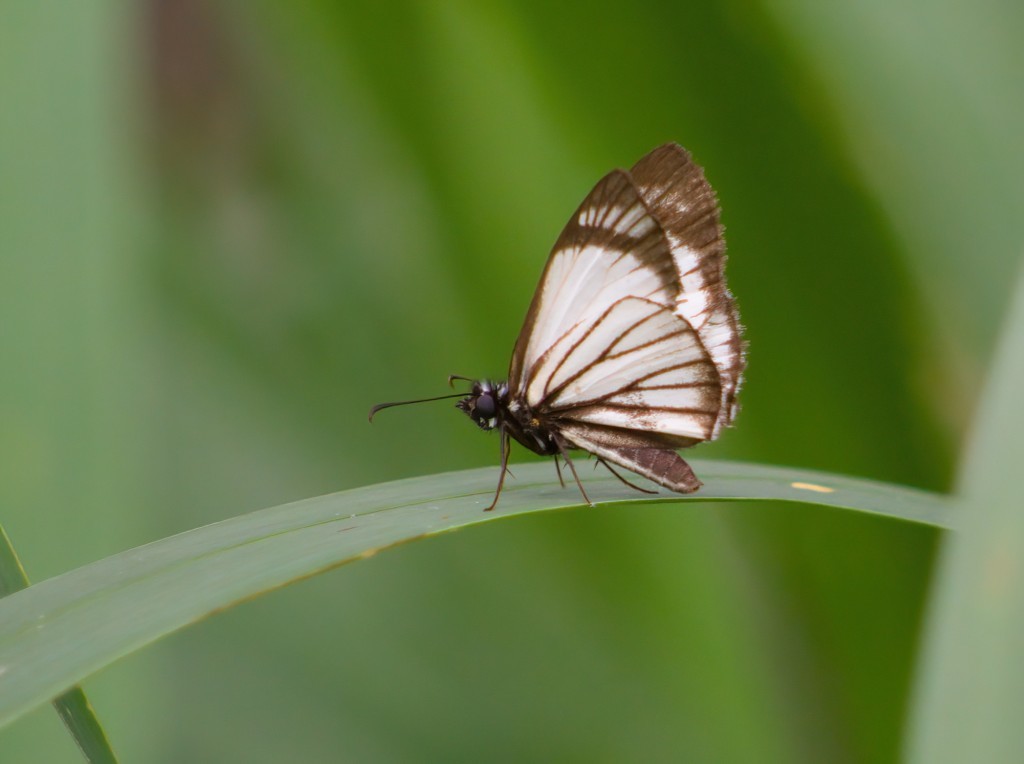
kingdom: Animalia
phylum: Arthropoda
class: Insecta
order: Lepidoptera
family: Hesperiidae
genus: Heliopetes
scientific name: Heliopetes alana
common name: Alana white-skipper
